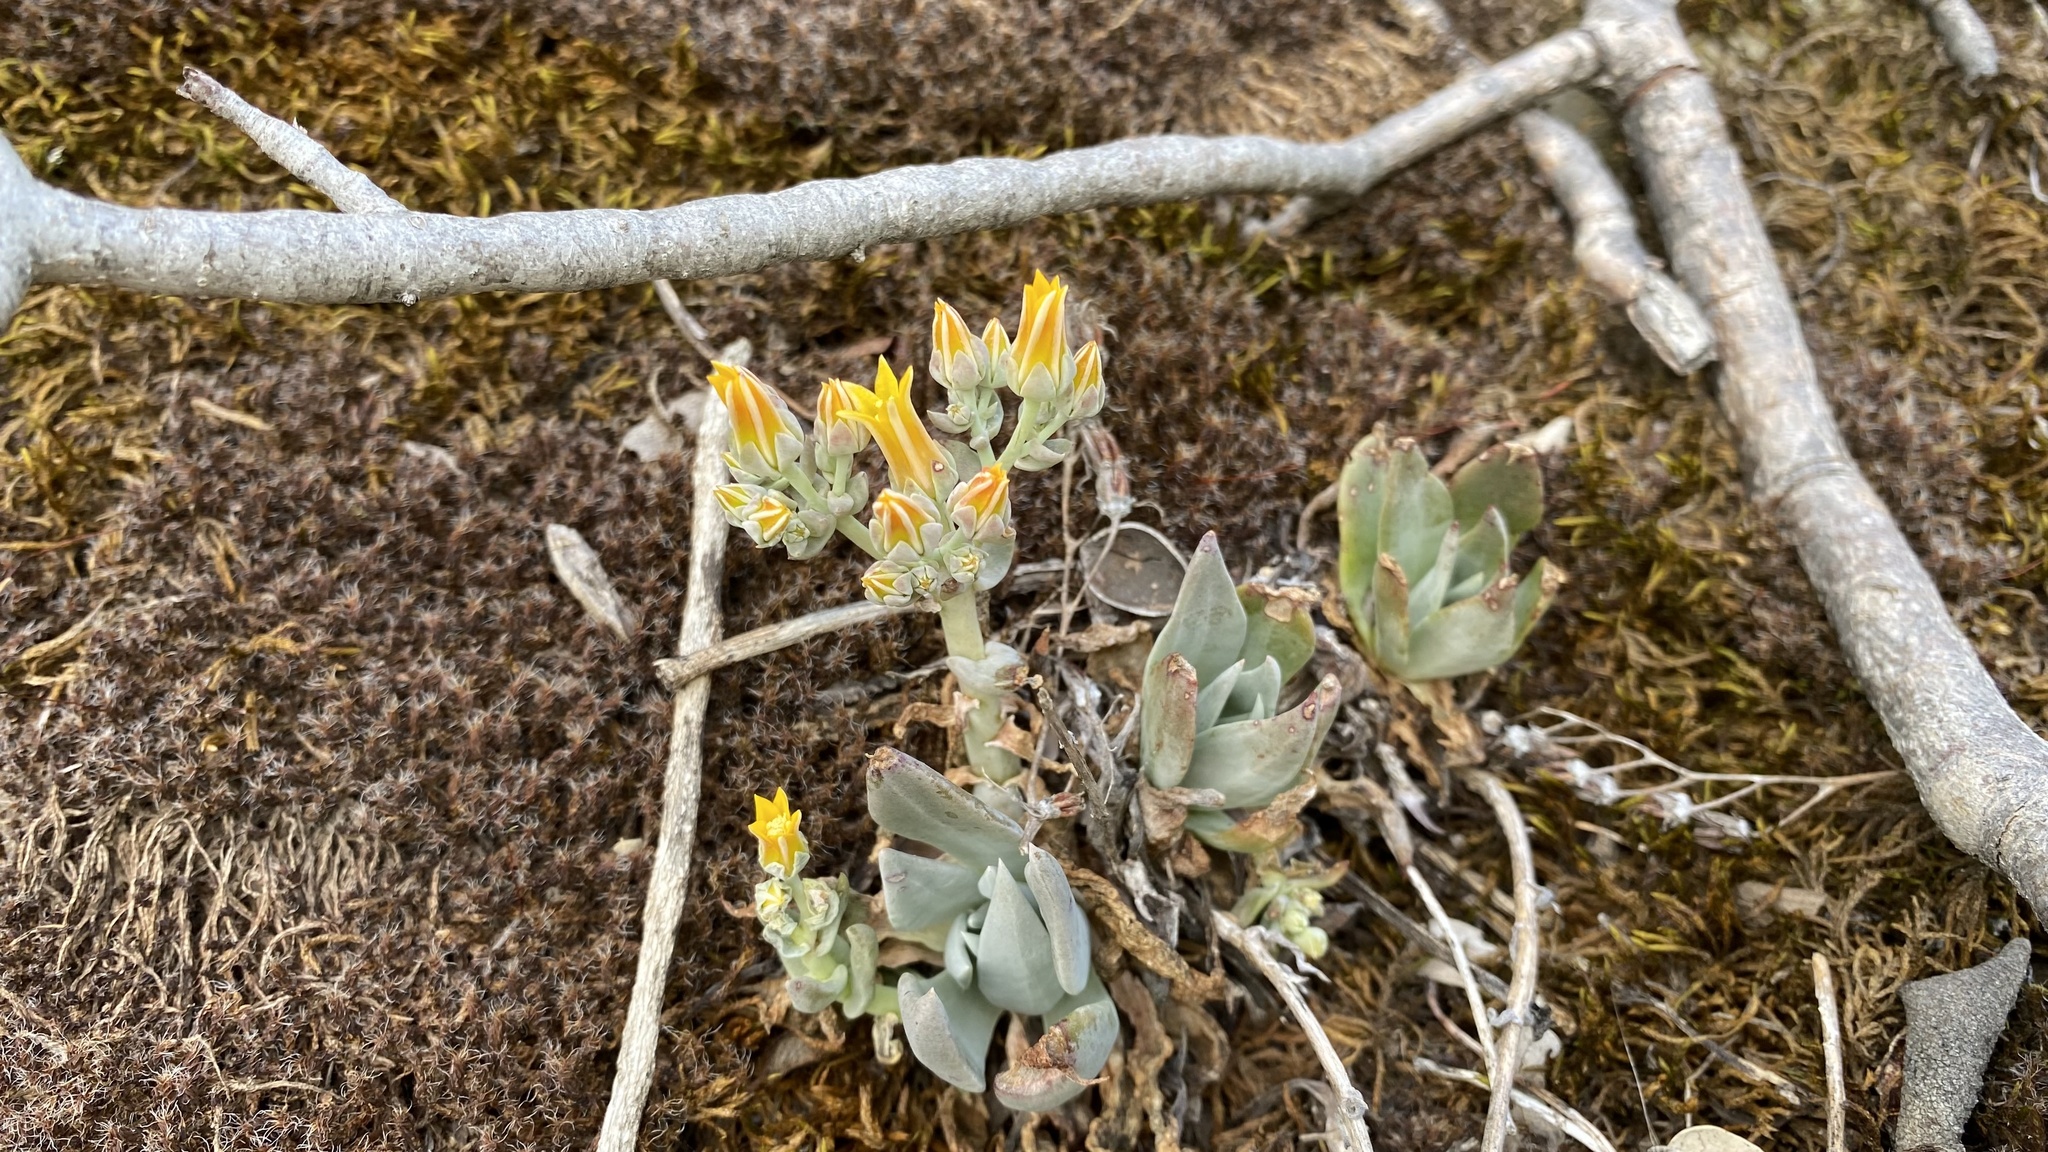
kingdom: Plantae
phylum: Tracheophyta
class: Magnoliopsida
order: Saxifragales
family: Crassulaceae
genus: Dudleya
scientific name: Dudleya cymosa
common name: Canyon dudleya
